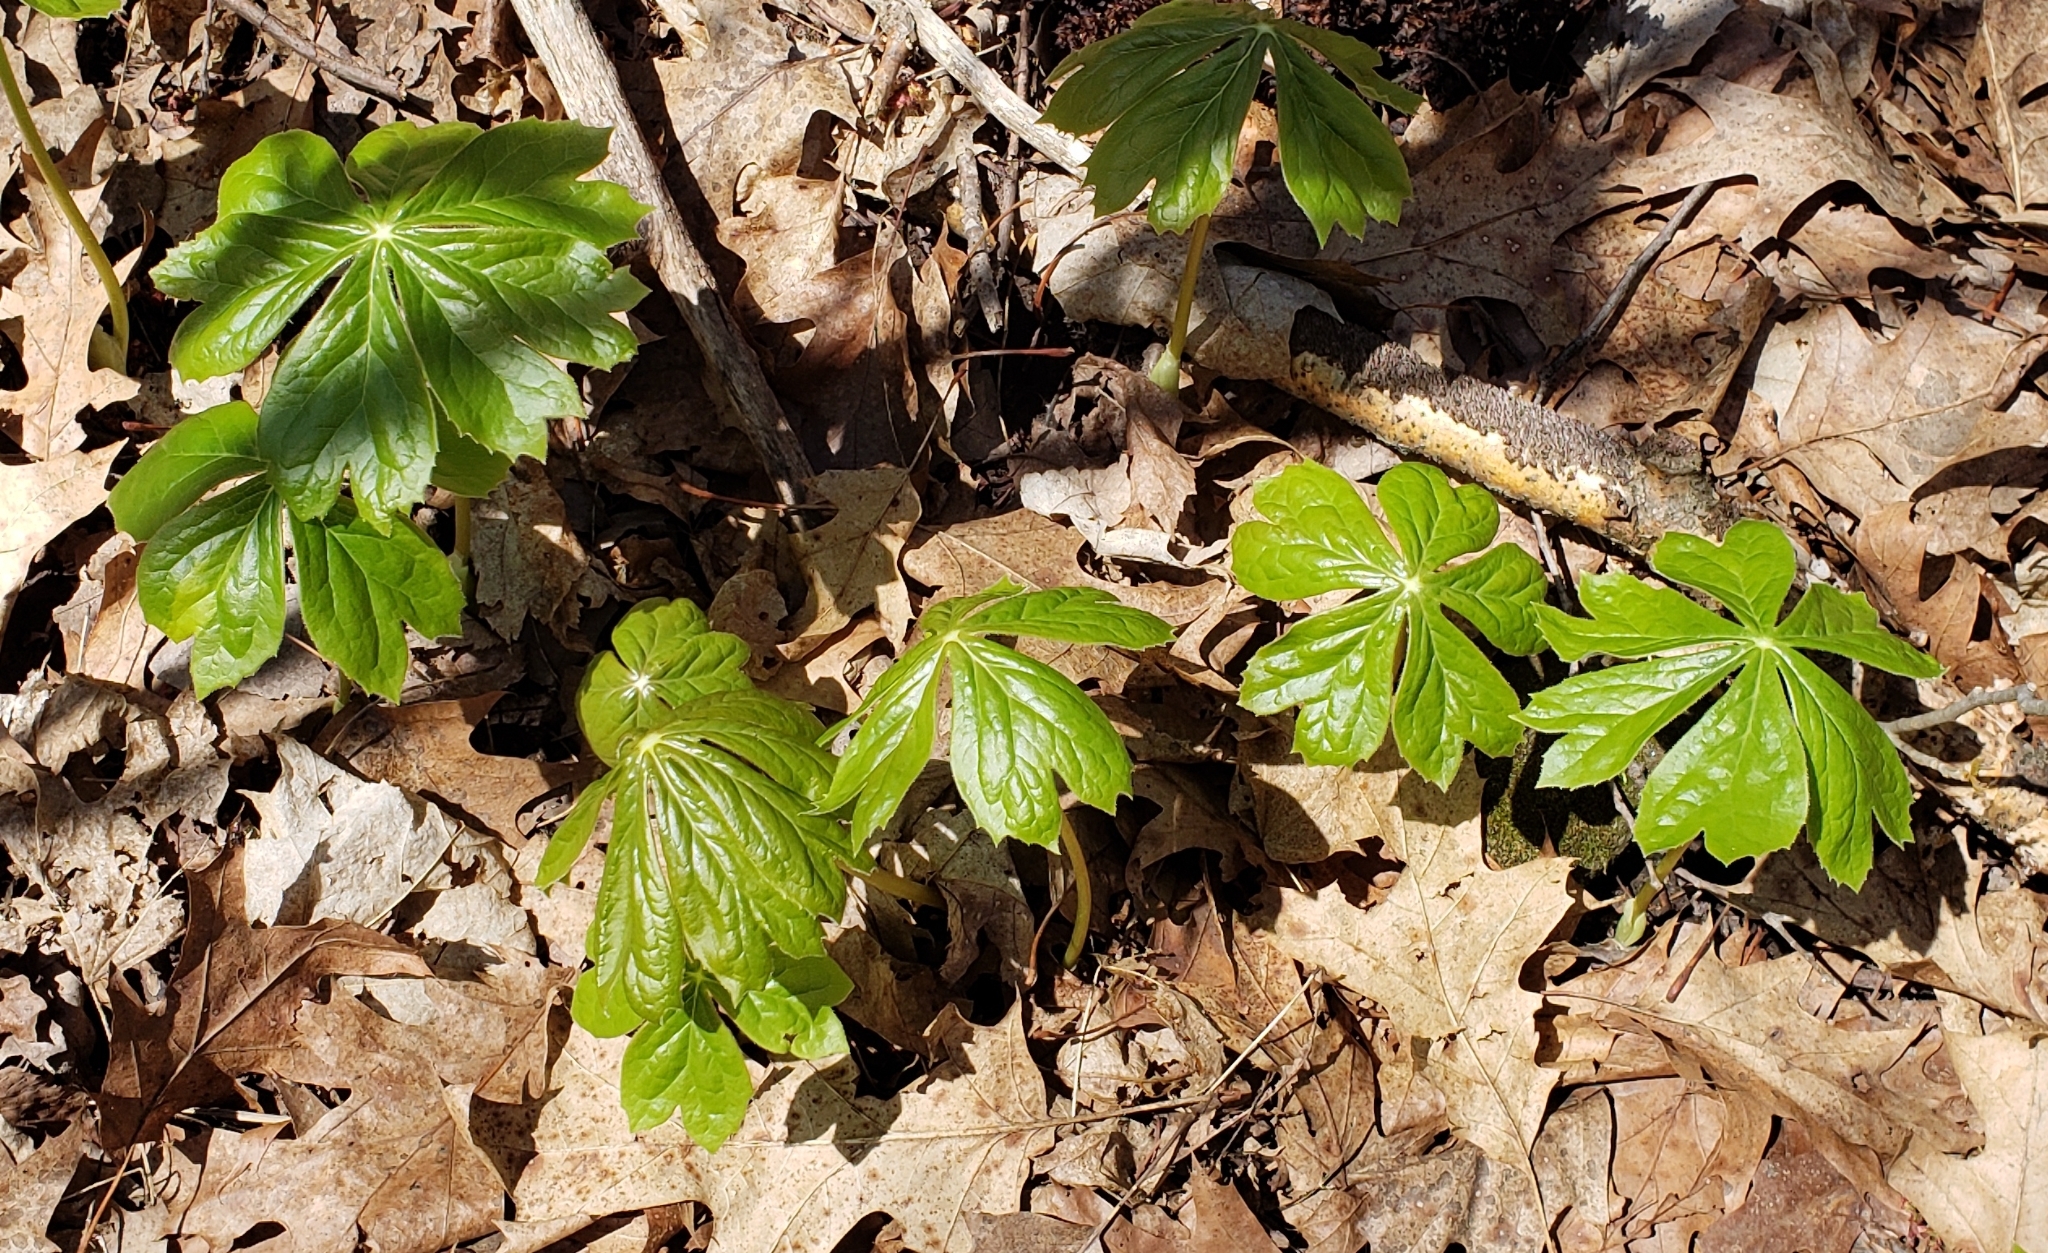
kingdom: Plantae
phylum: Tracheophyta
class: Magnoliopsida
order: Ranunculales
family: Berberidaceae
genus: Podophyllum
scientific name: Podophyllum peltatum
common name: Wild mandrake
